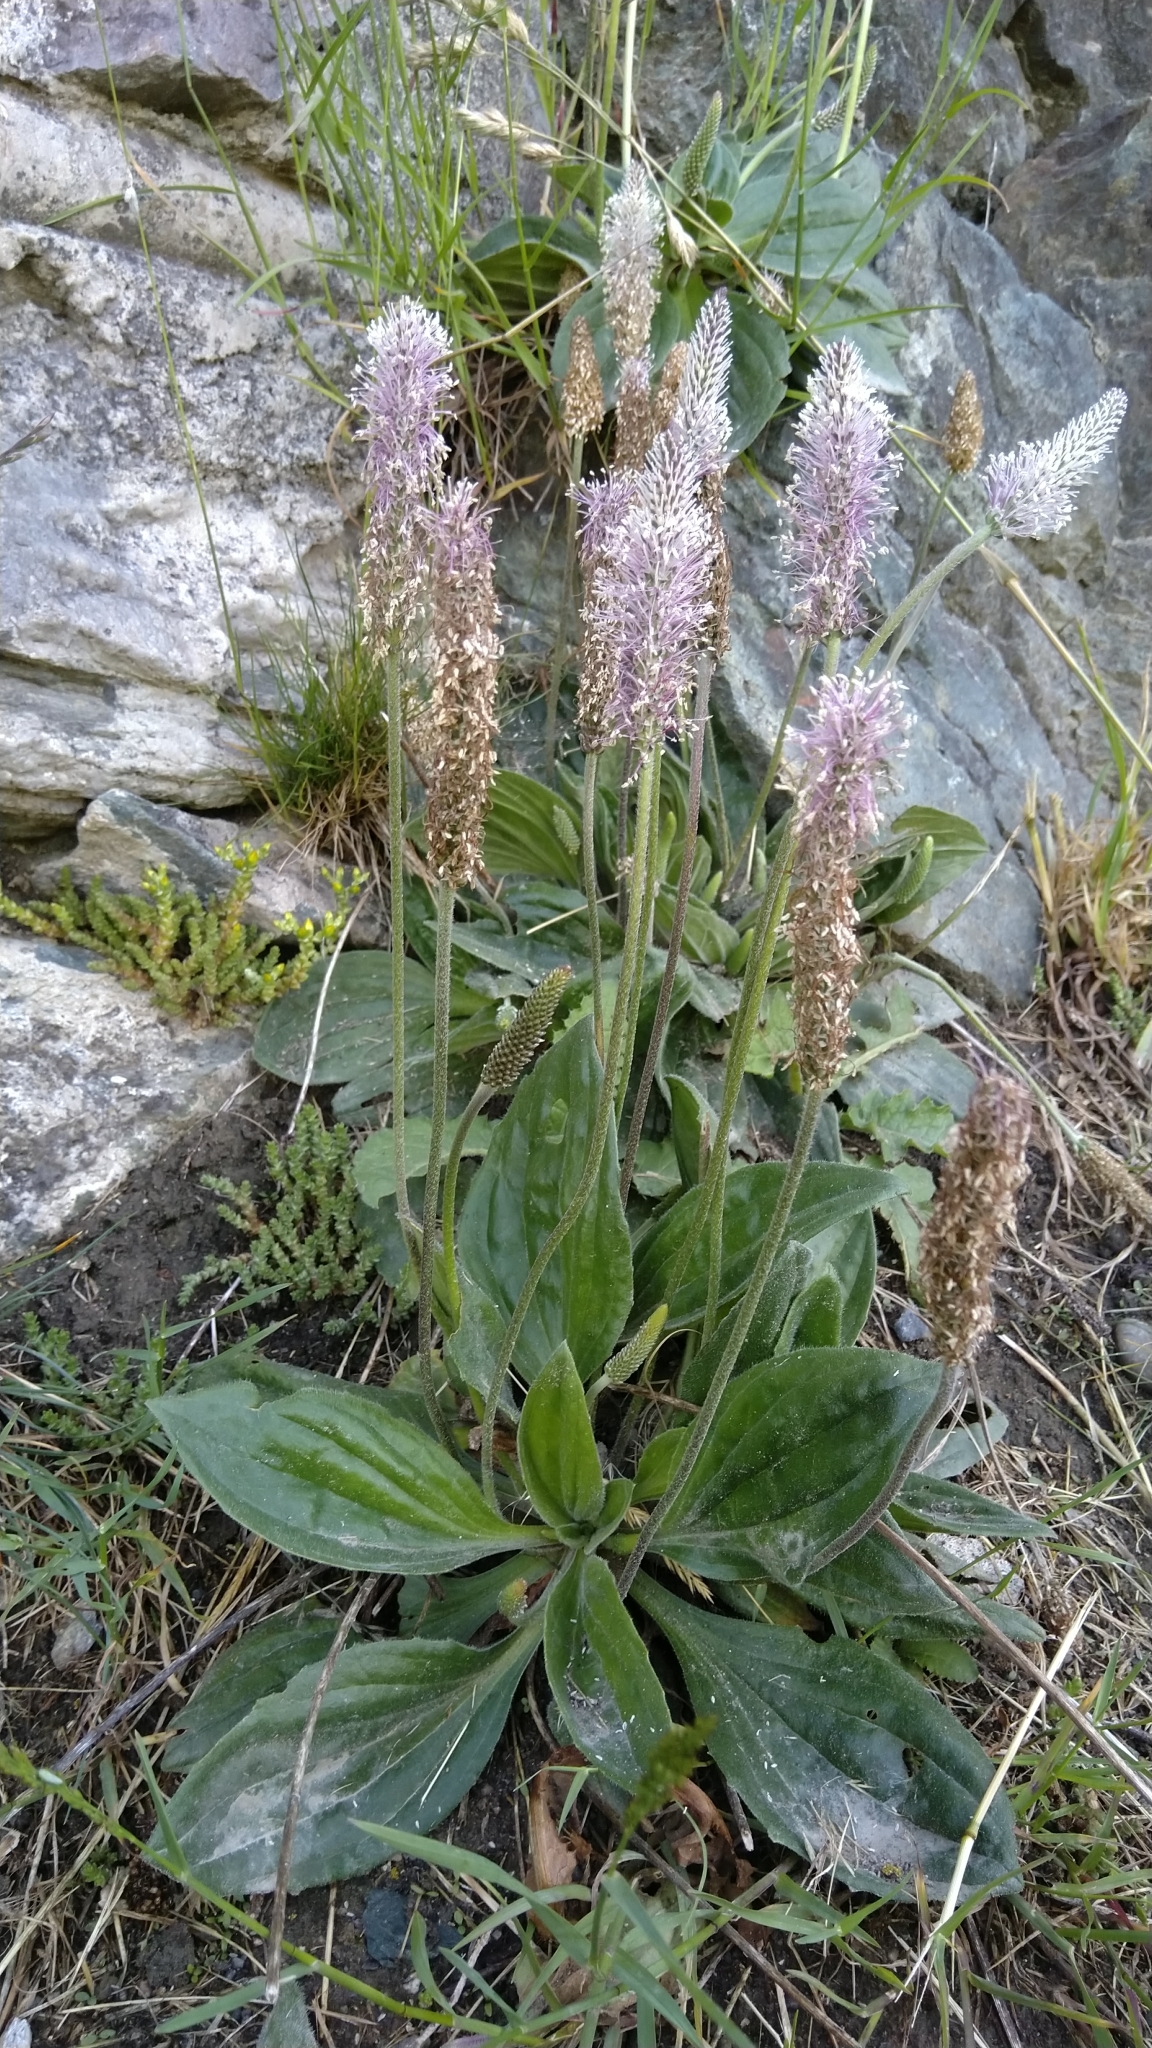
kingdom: Plantae
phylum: Tracheophyta
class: Magnoliopsida
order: Lamiales
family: Plantaginaceae
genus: Plantago
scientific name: Plantago media
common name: Hoary plantain
